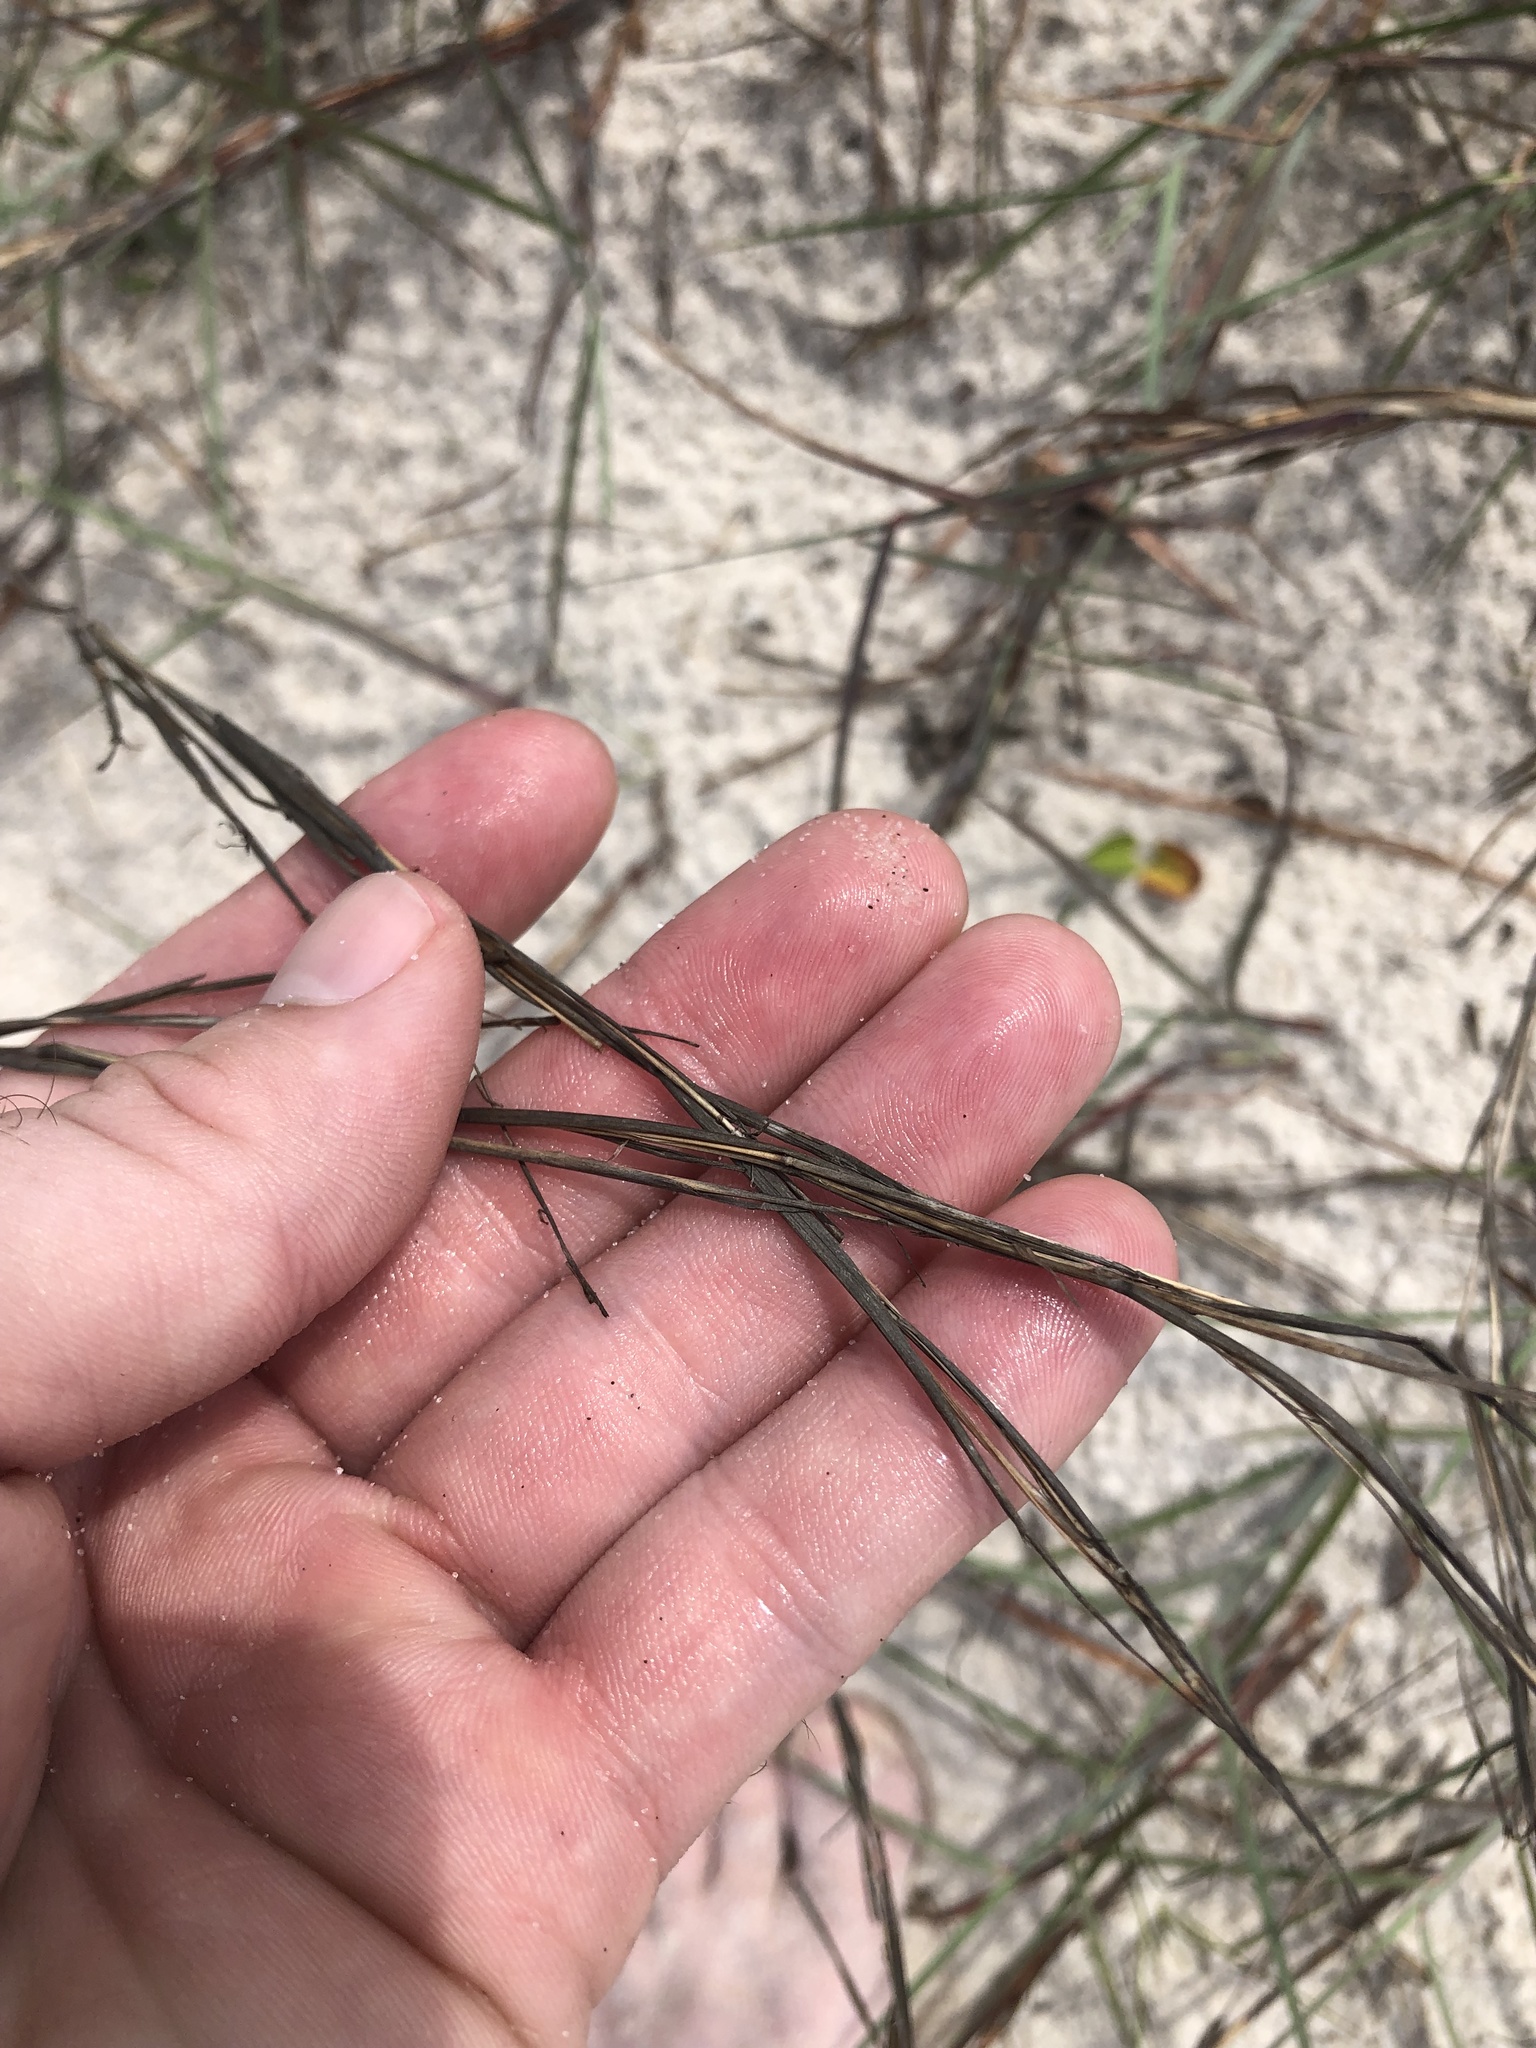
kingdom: Plantae
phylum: Tracheophyta
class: Liliopsida
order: Poales
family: Poaceae
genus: Schizachyrium
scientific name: Schizachyrium maritimum
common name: Gulf bluestem
